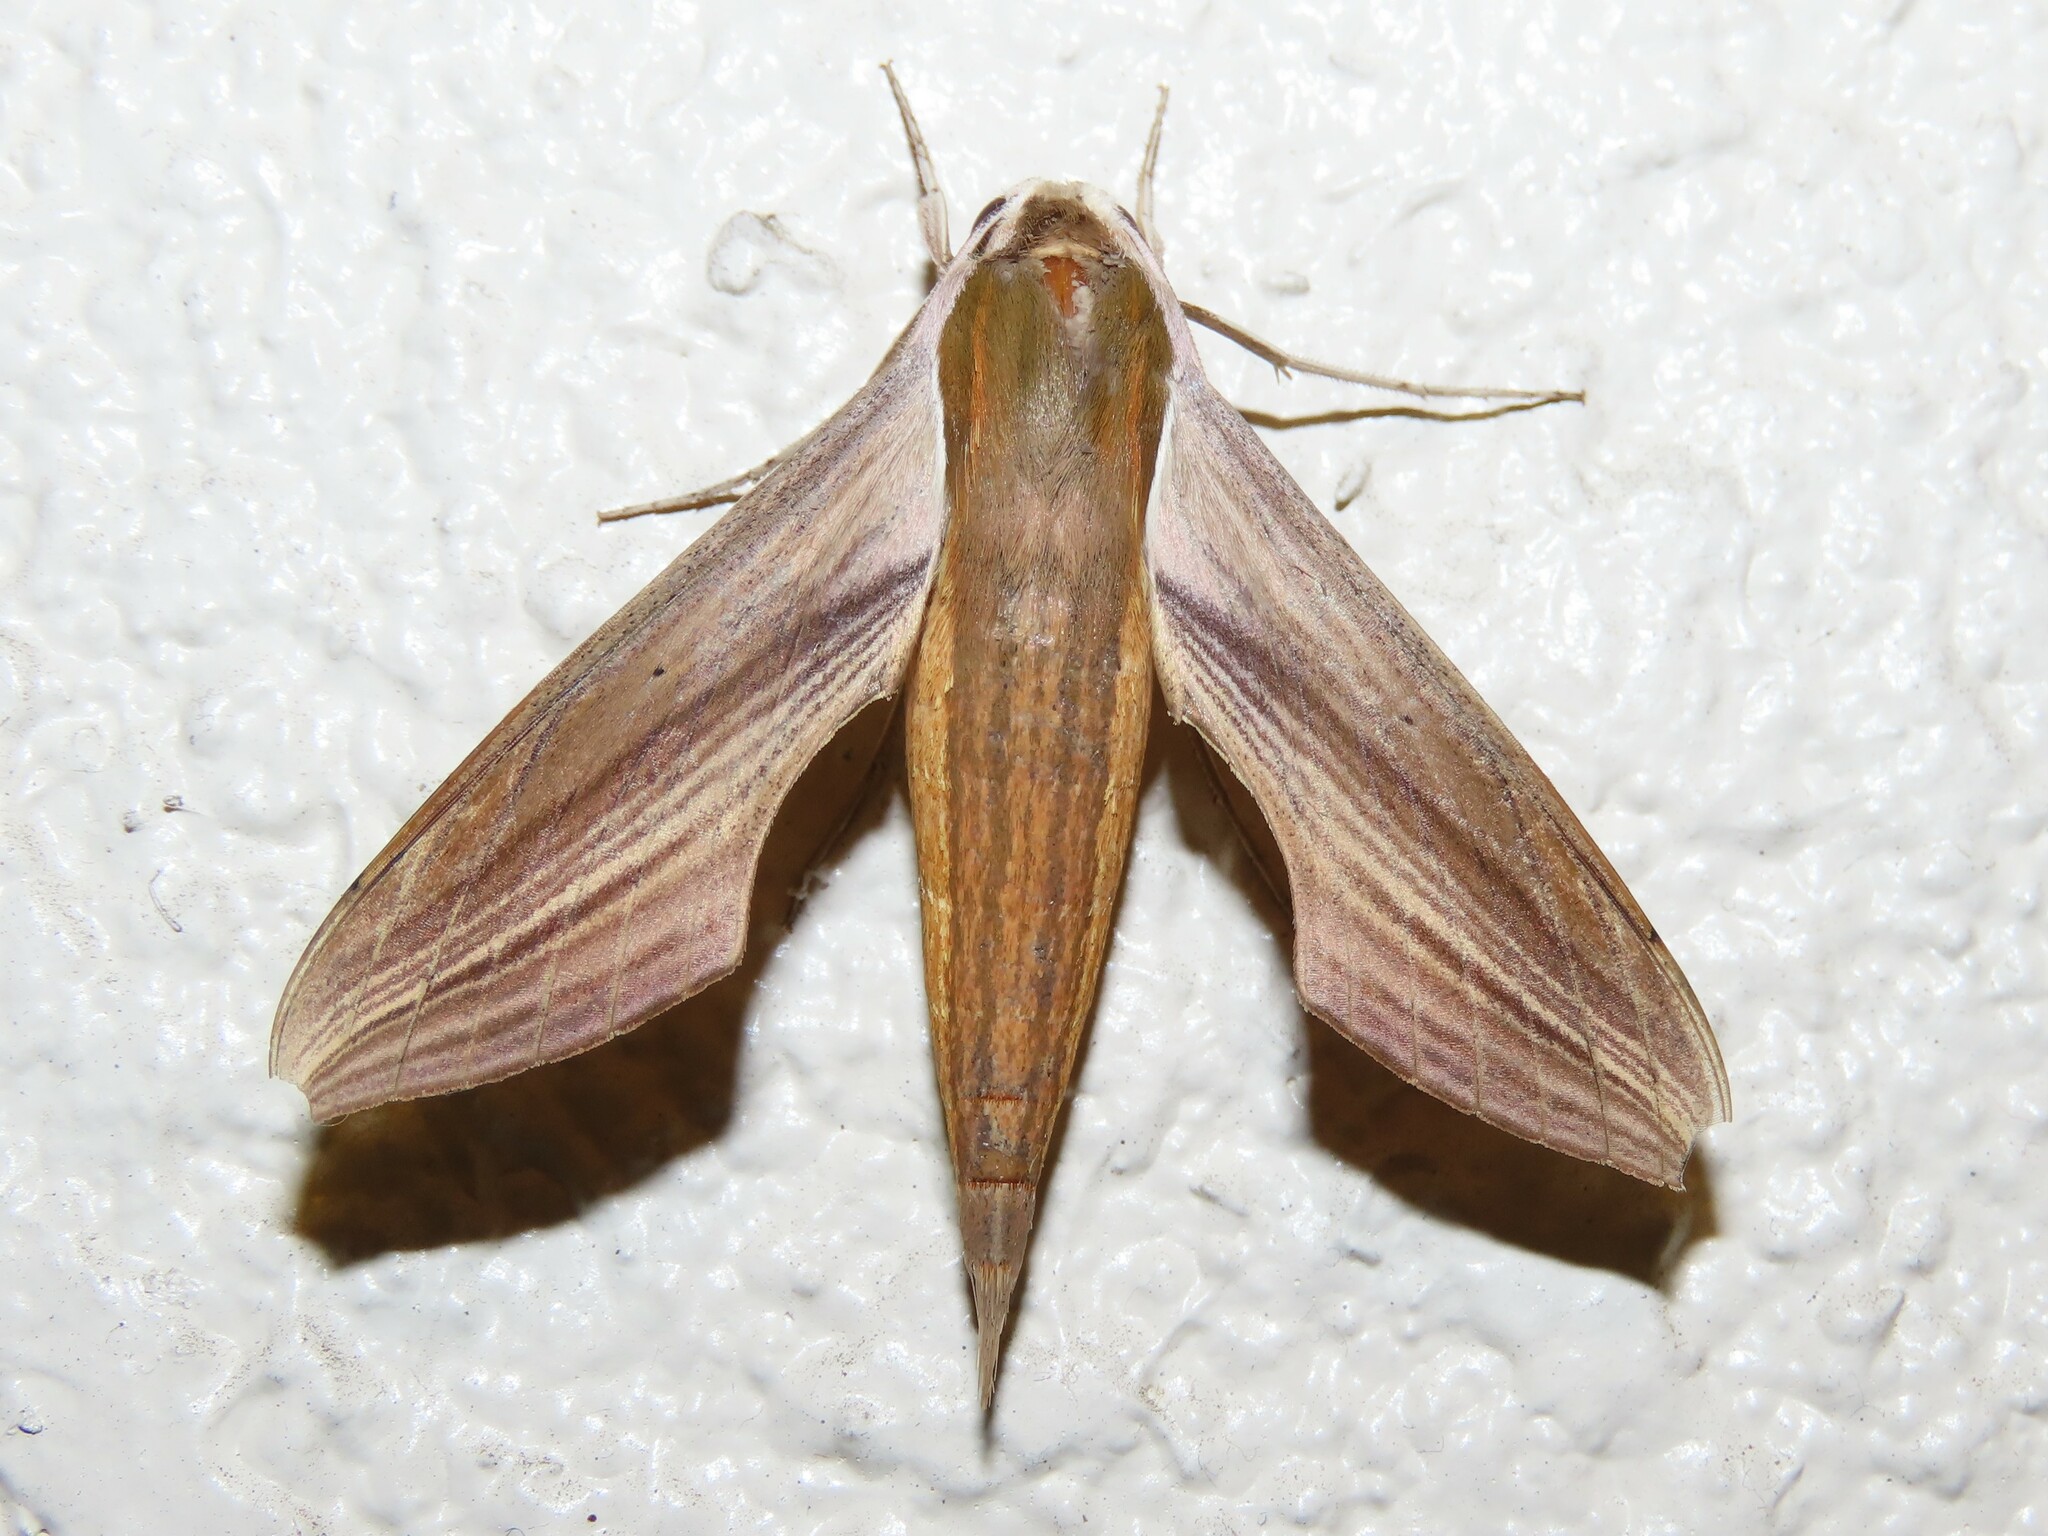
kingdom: Animalia
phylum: Arthropoda
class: Insecta
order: Lepidoptera
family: Sphingidae
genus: Xylophanes
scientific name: Xylophanes tersa
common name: Tersa sphinx
